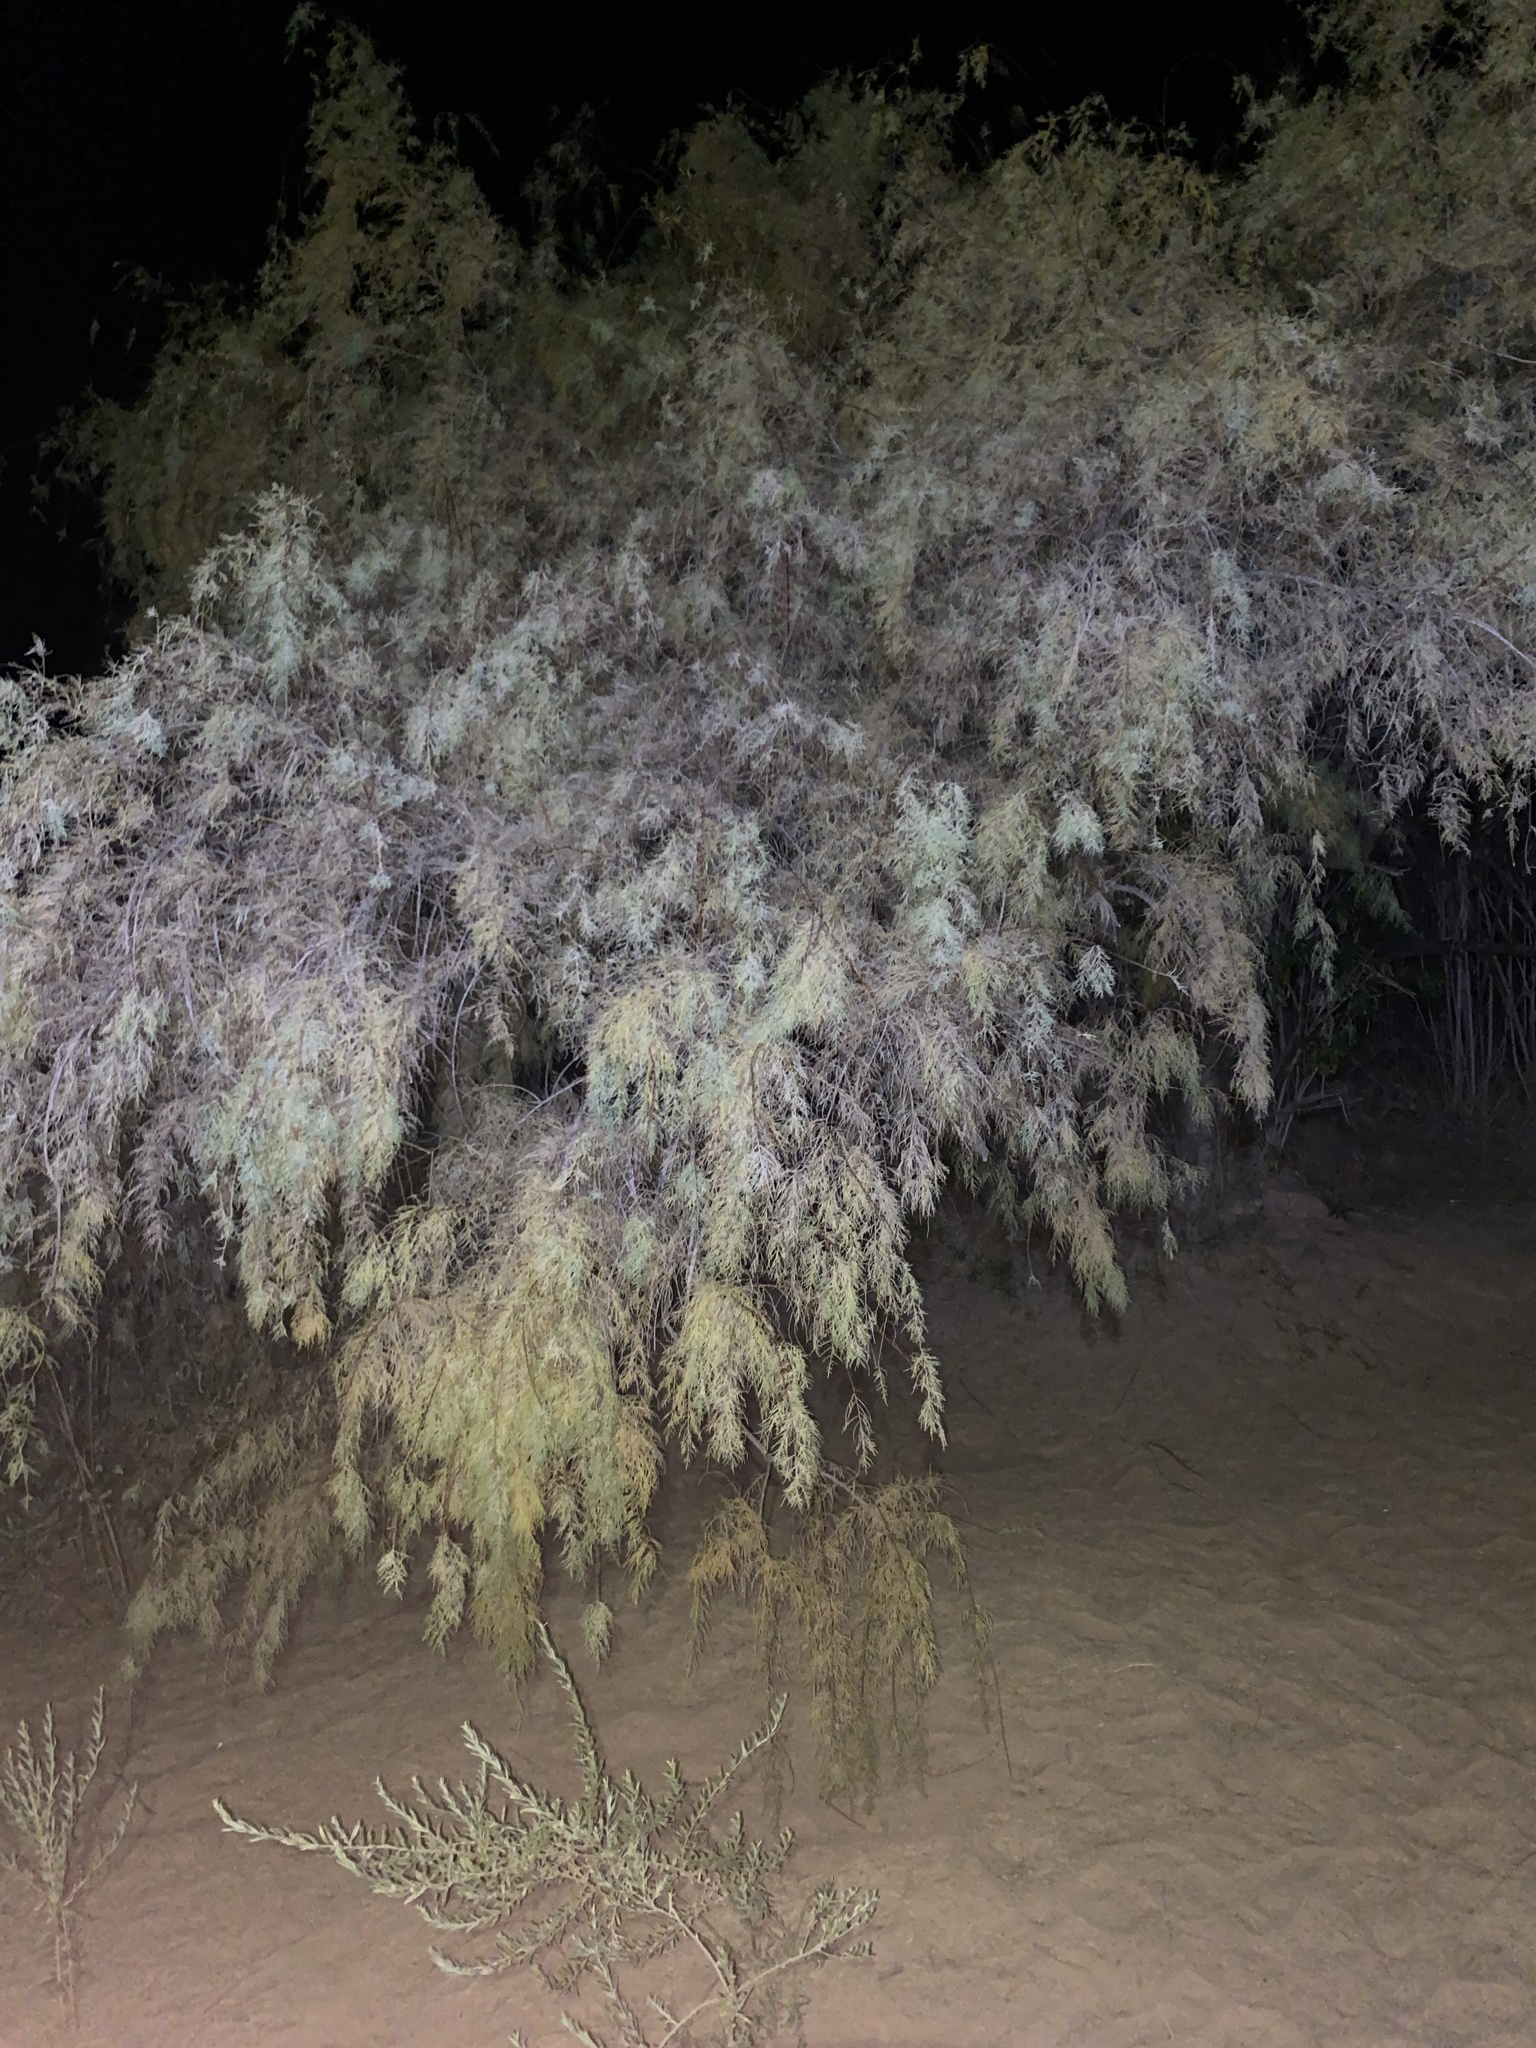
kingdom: Plantae
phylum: Tracheophyta
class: Magnoliopsida
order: Caryophyllales
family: Tamaricaceae
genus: Tamarix
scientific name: Tamarix
